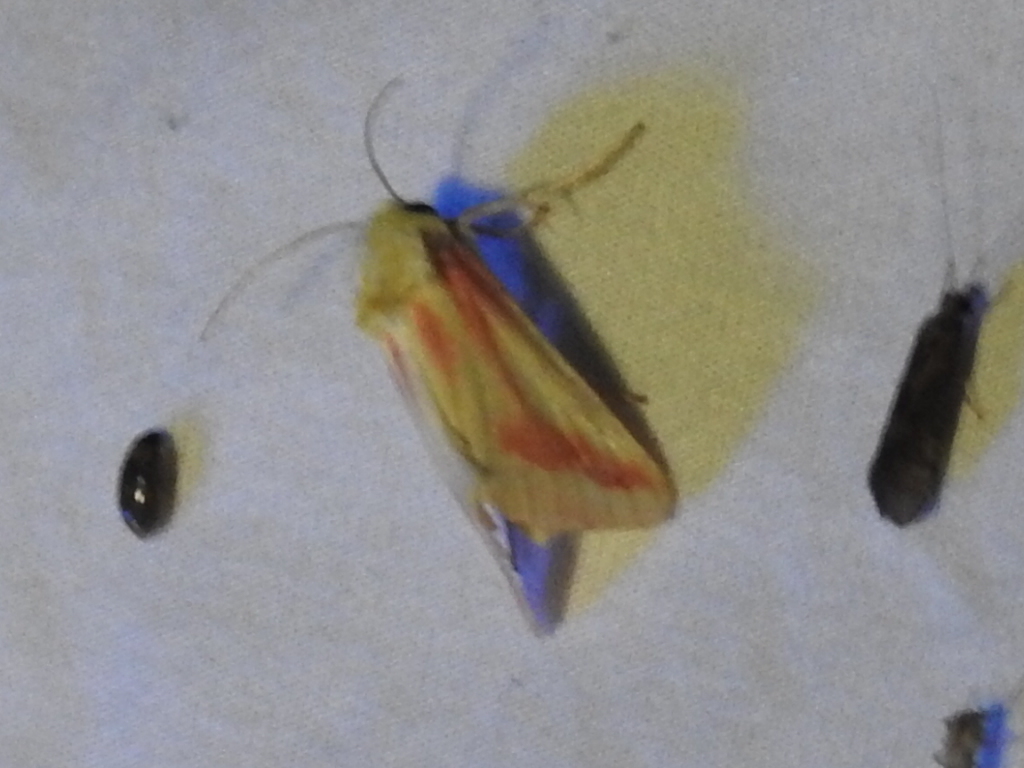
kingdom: Animalia
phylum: Arthropoda
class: Insecta
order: Lepidoptera
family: Noctuidae
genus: Schinia
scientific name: Schinia gaurae
